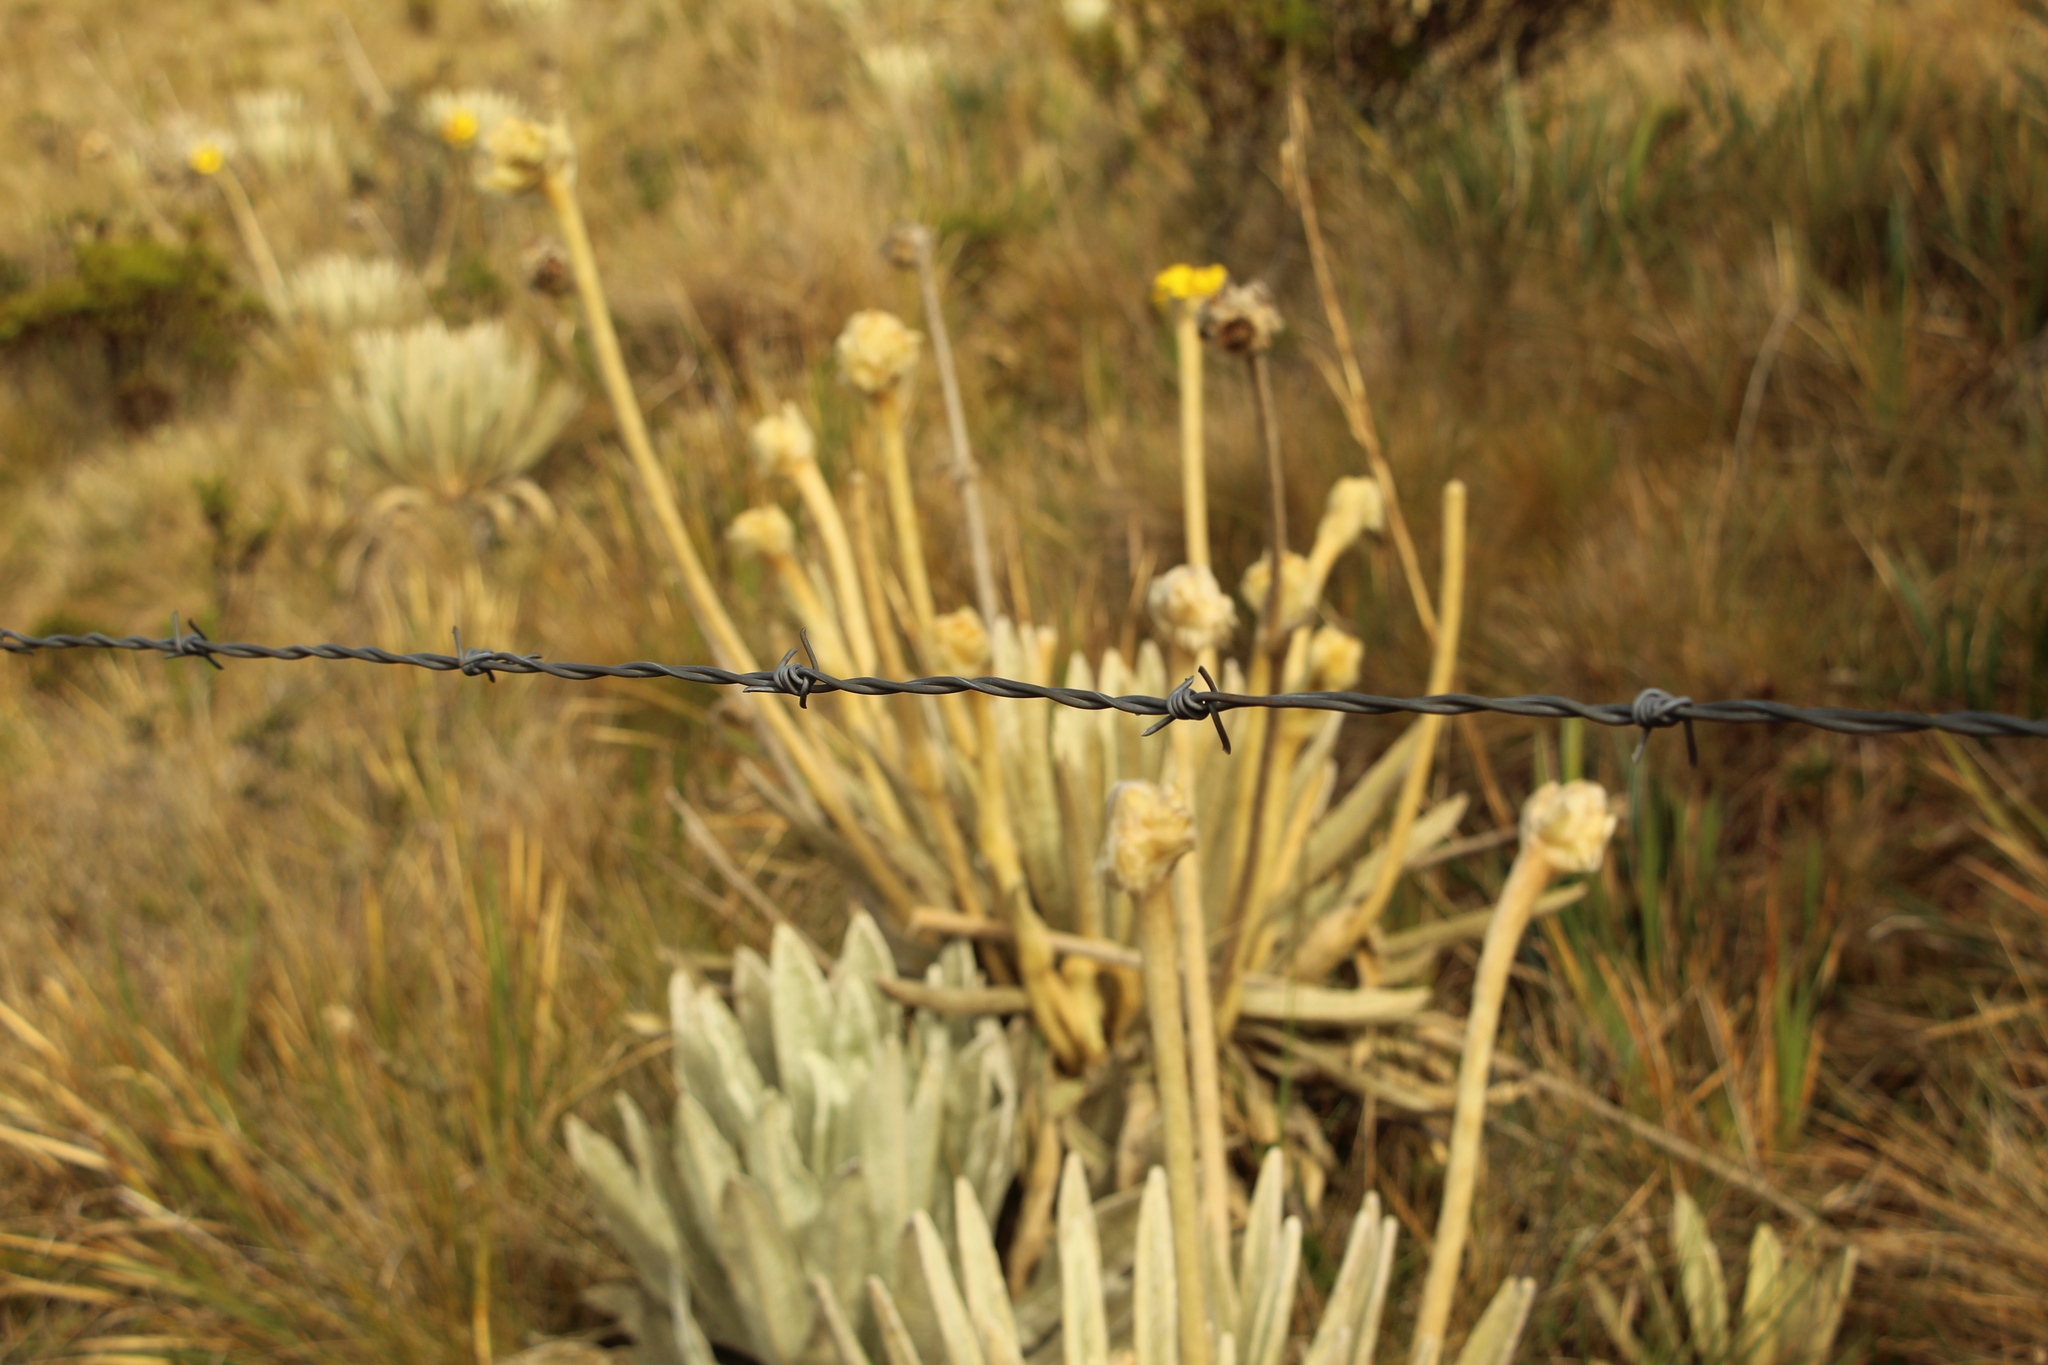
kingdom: Plantae
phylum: Tracheophyta
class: Magnoliopsida
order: Asterales
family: Asteraceae
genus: Espeletia
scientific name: Espeletia congestiflora
